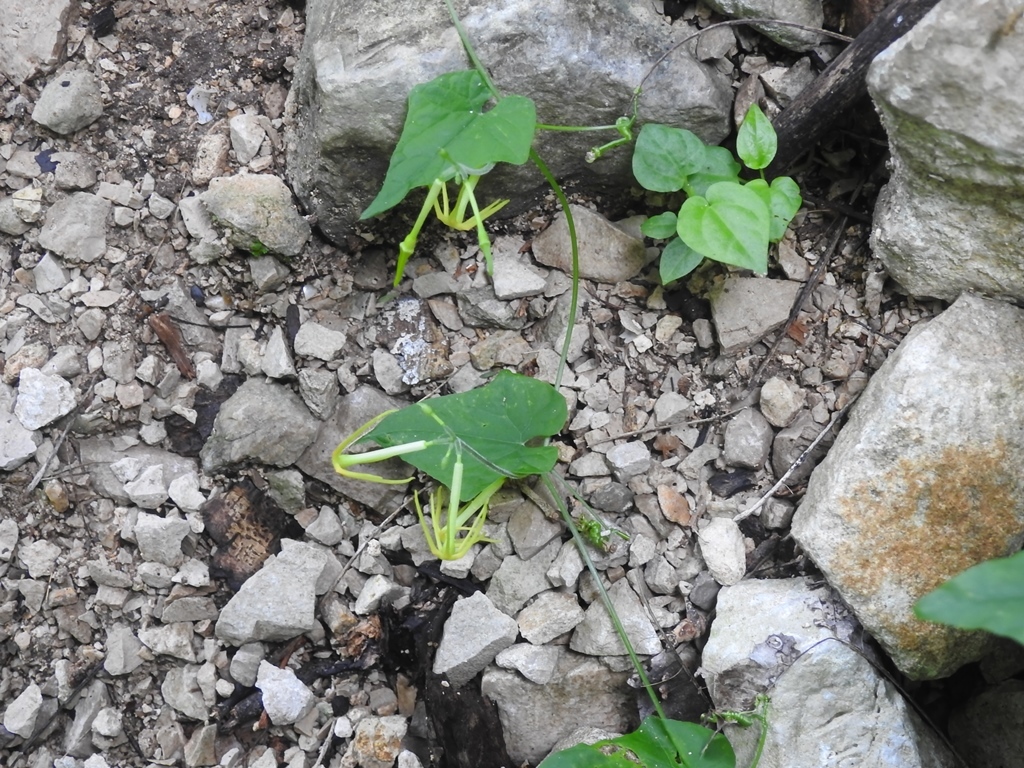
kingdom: Plantae
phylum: Tracheophyta
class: Magnoliopsida
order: Cucurbitales
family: Cucurbitaceae
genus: Cyclanthera
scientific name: Cyclanthera carthagenensis
